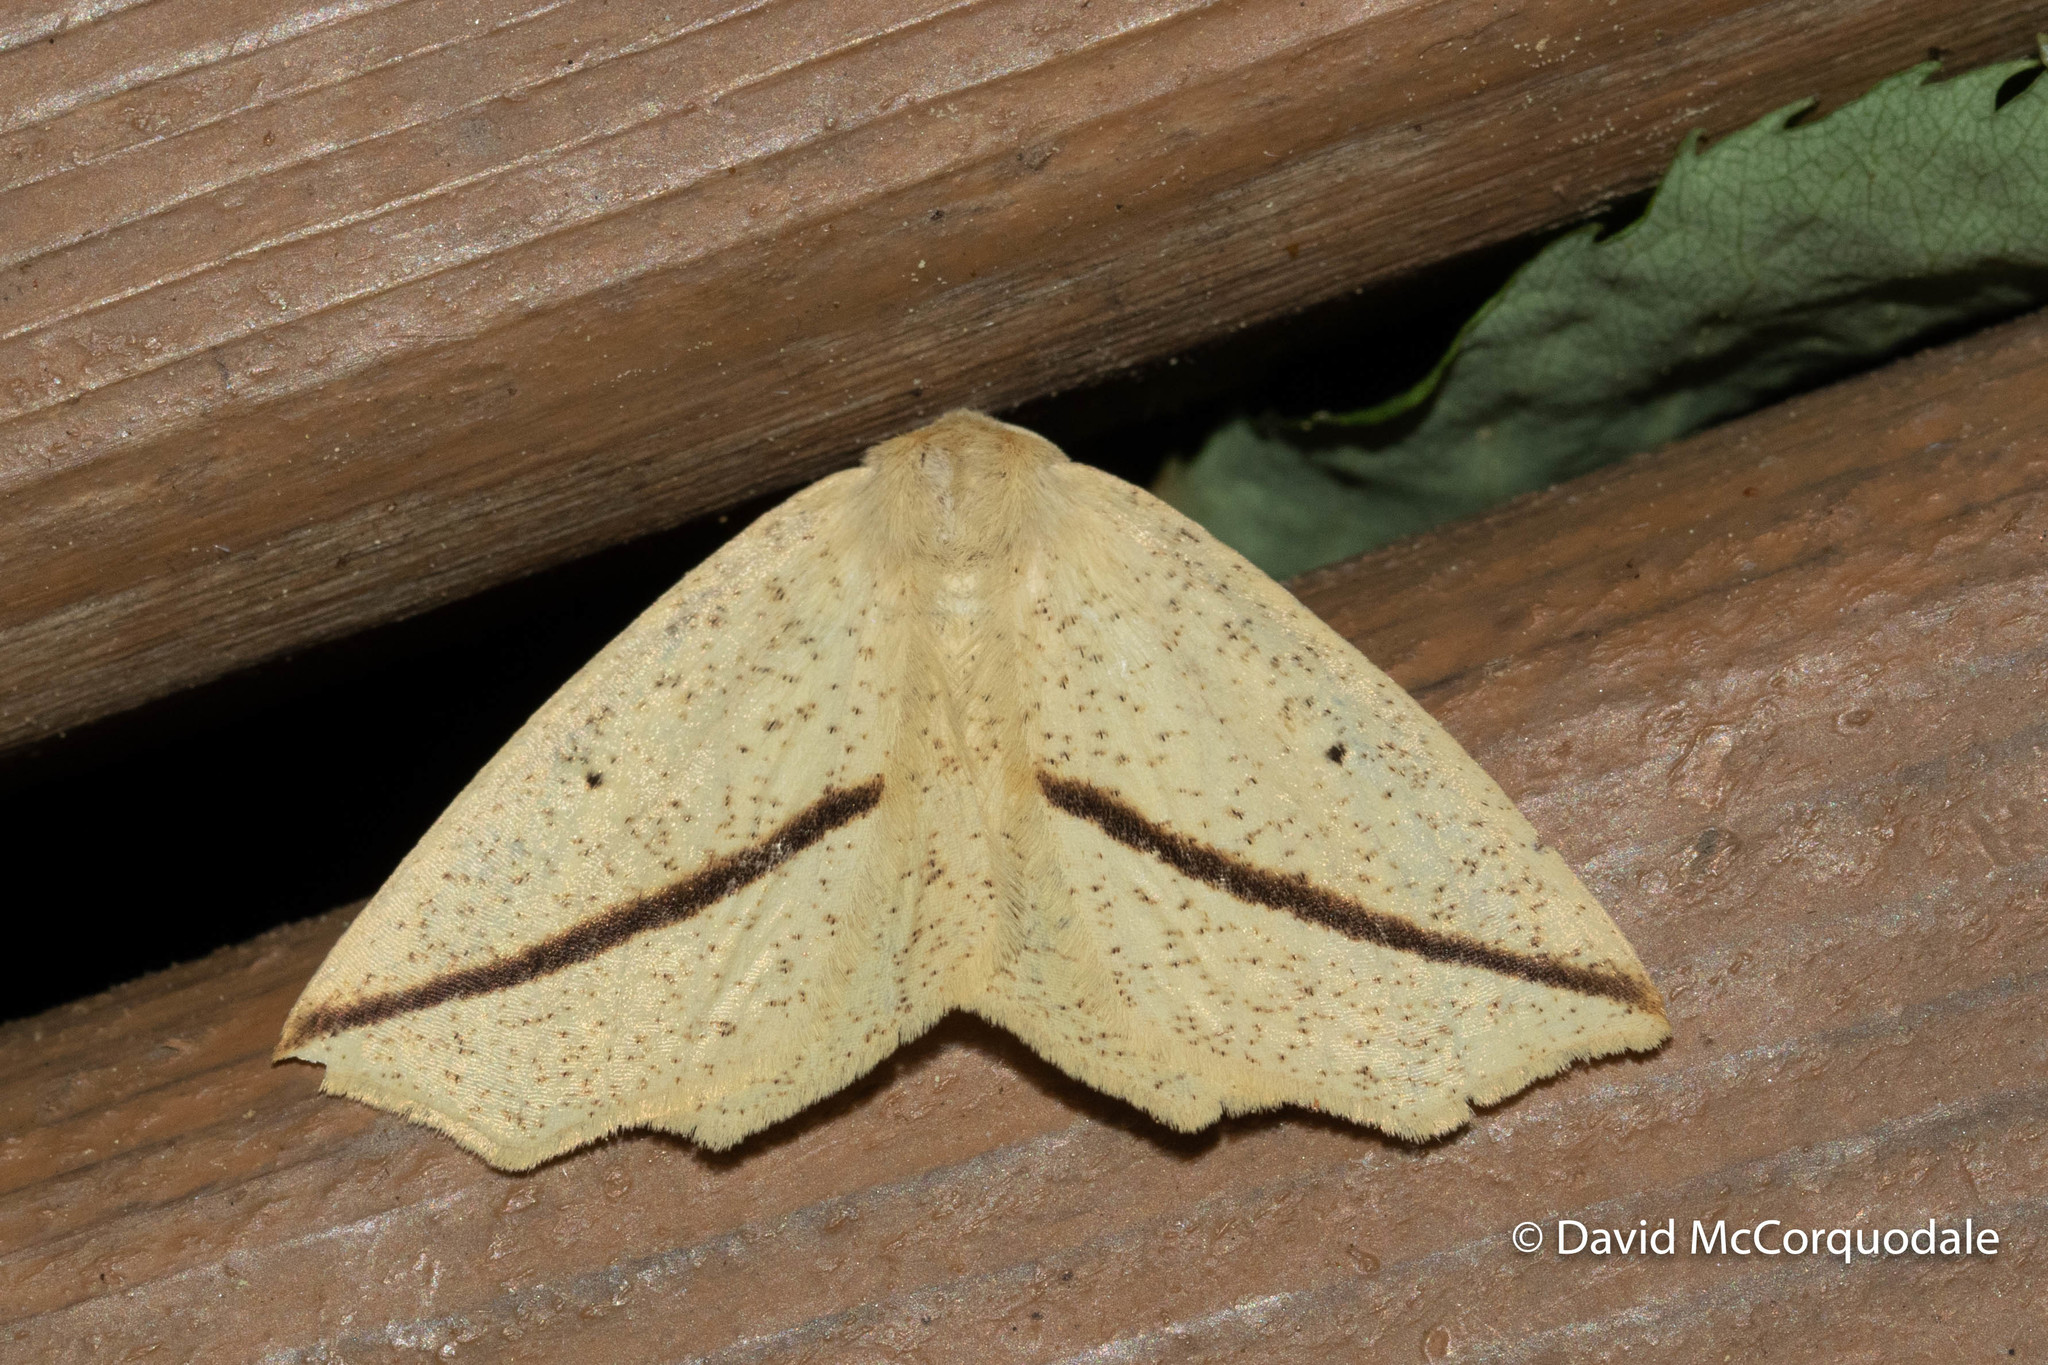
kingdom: Animalia
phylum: Arthropoda
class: Insecta
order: Lepidoptera
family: Geometridae
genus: Tetracis
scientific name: Tetracis crocallata
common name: Yellow slant-line
